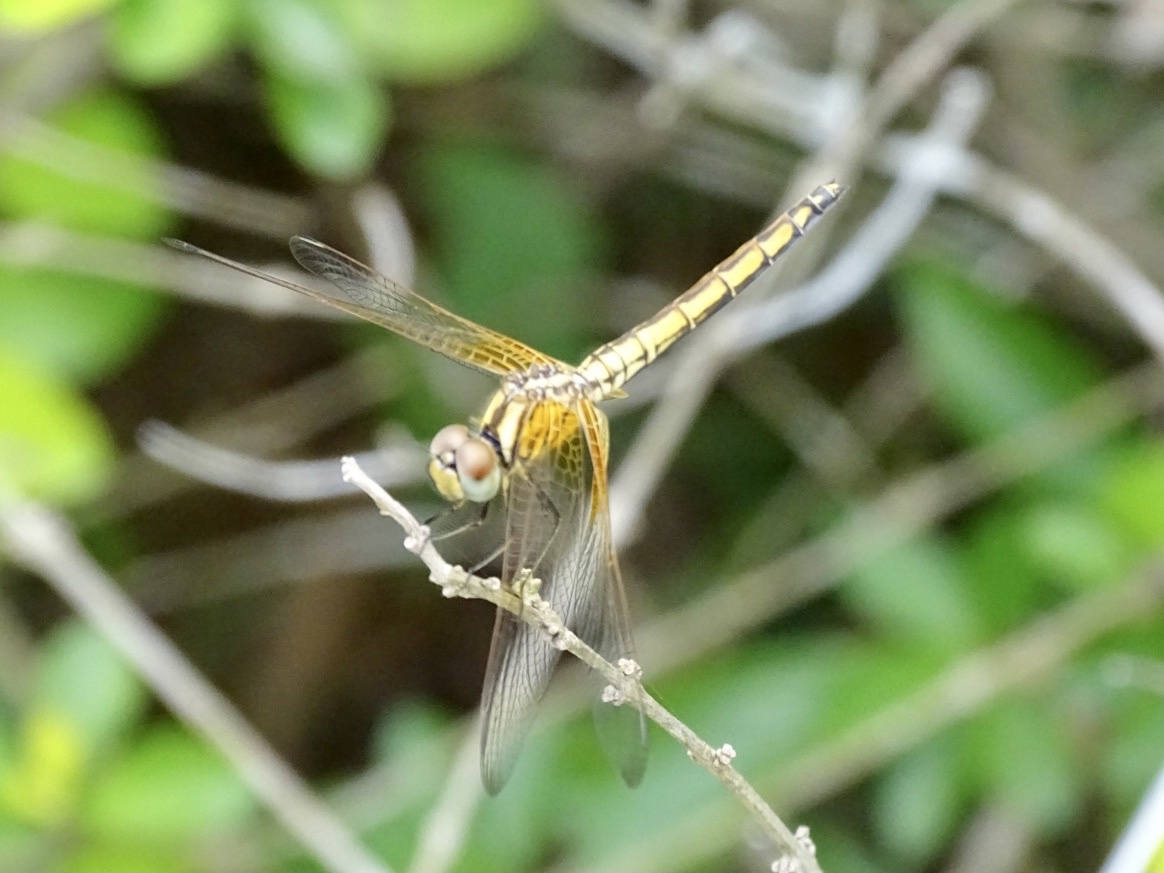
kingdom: Animalia
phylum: Arthropoda
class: Insecta
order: Odonata
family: Libellulidae
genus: Trithemis
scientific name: Trithemis aurora
